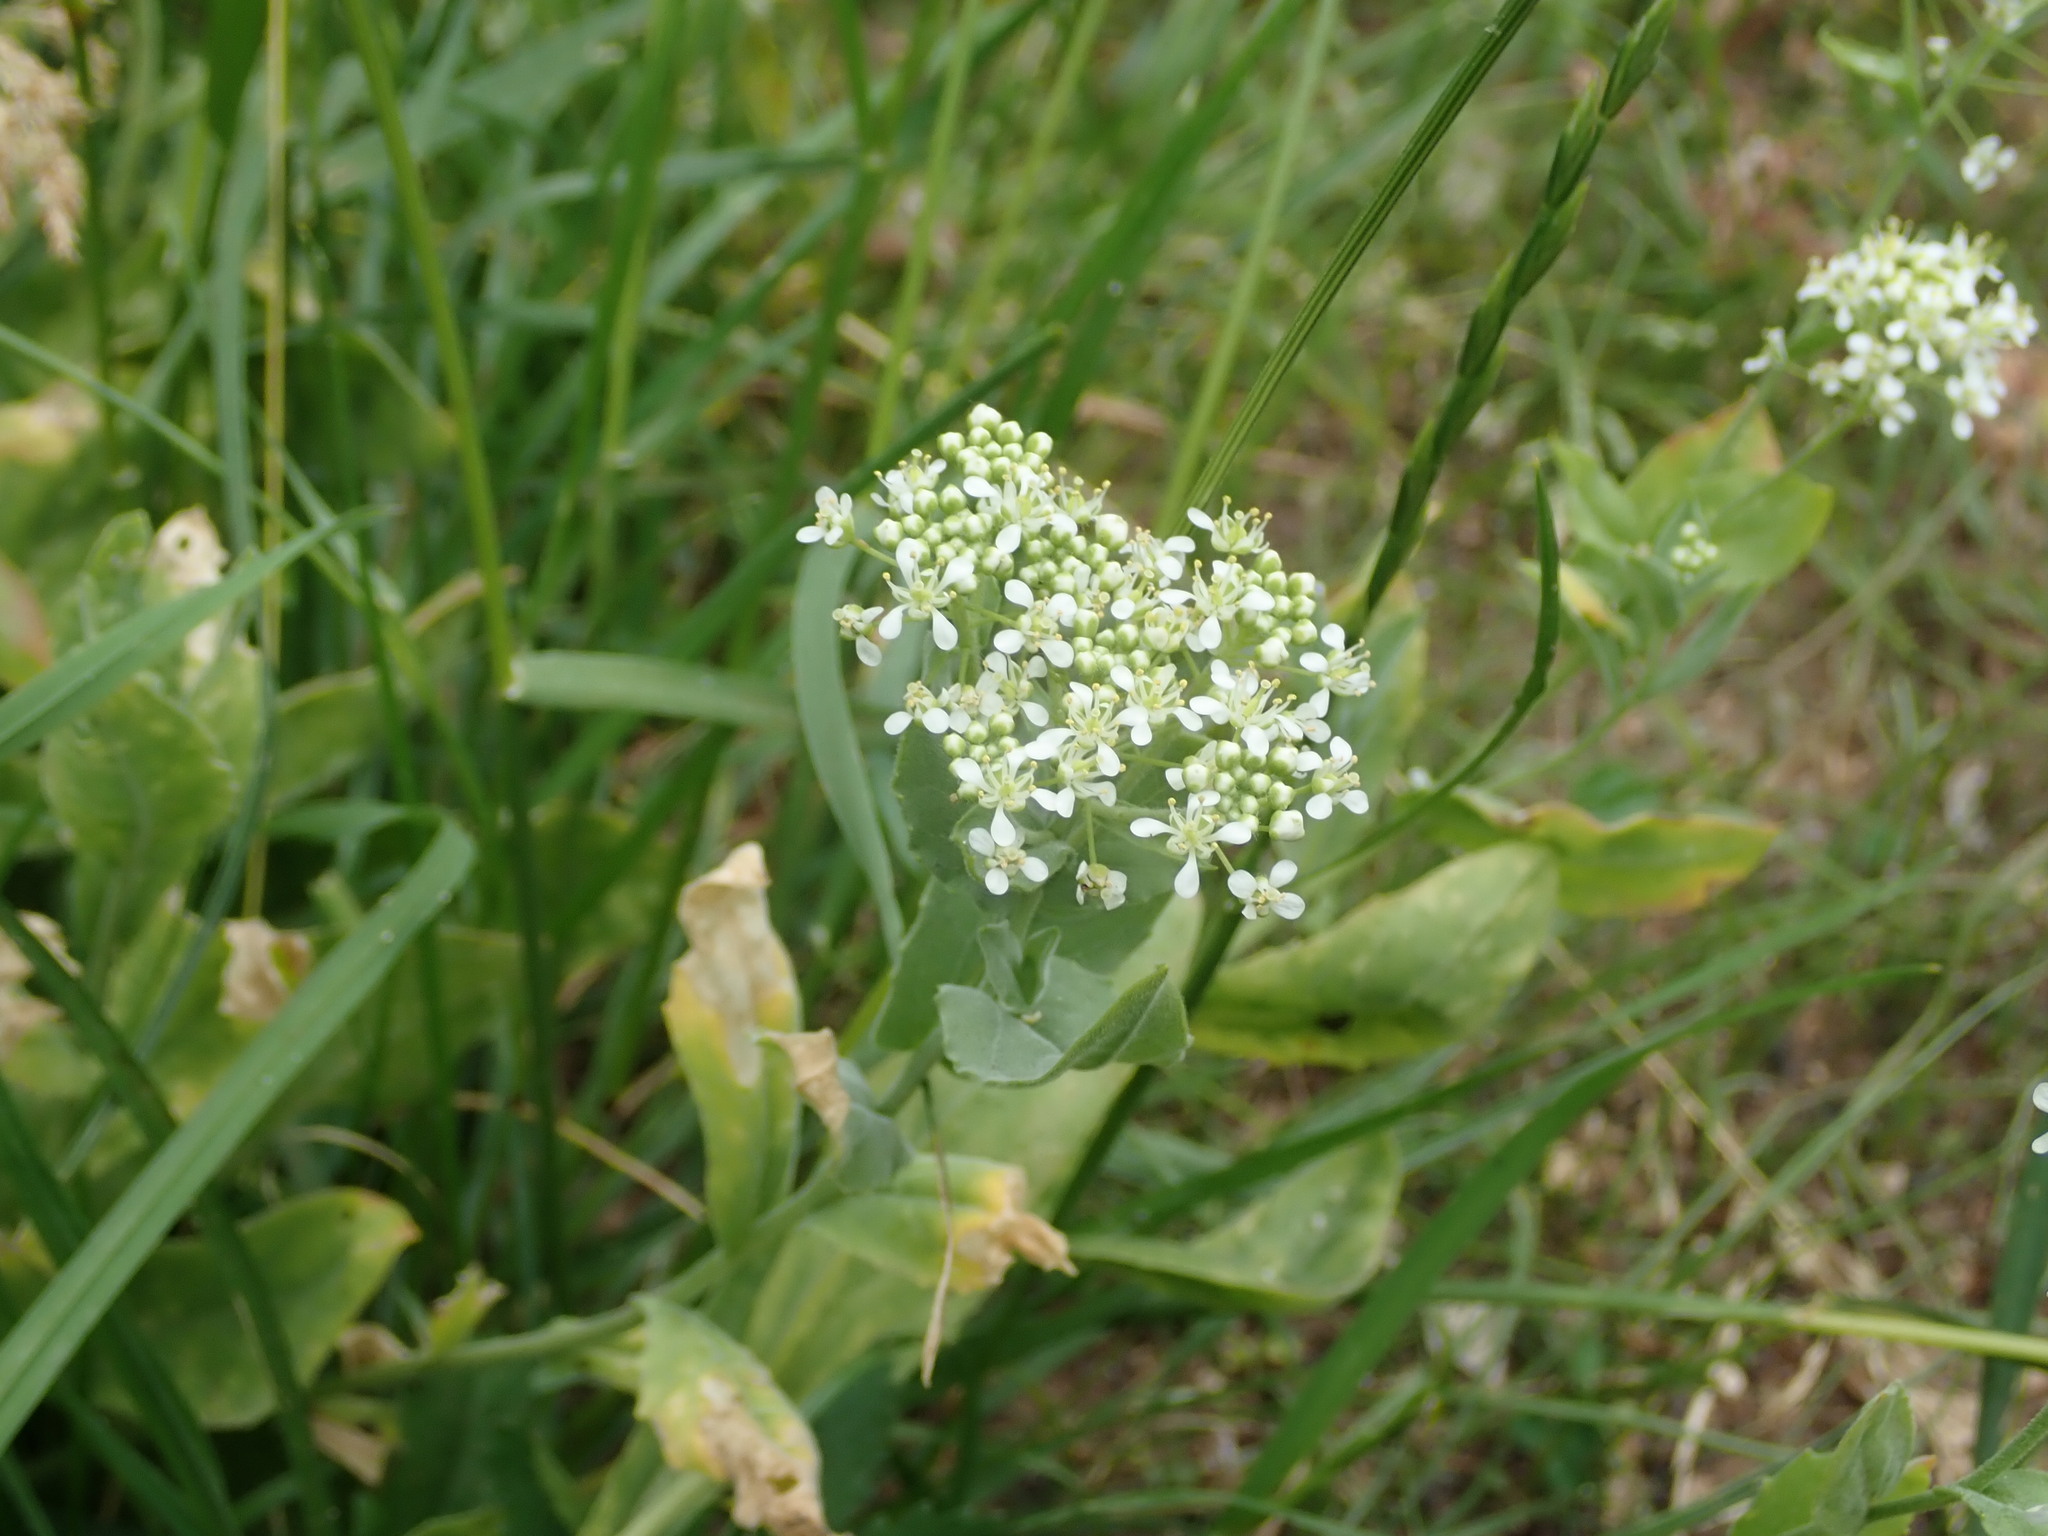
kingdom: Plantae
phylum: Tracheophyta
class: Magnoliopsida
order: Brassicales
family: Brassicaceae
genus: Lepidium
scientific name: Lepidium draba
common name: Hoary cress
